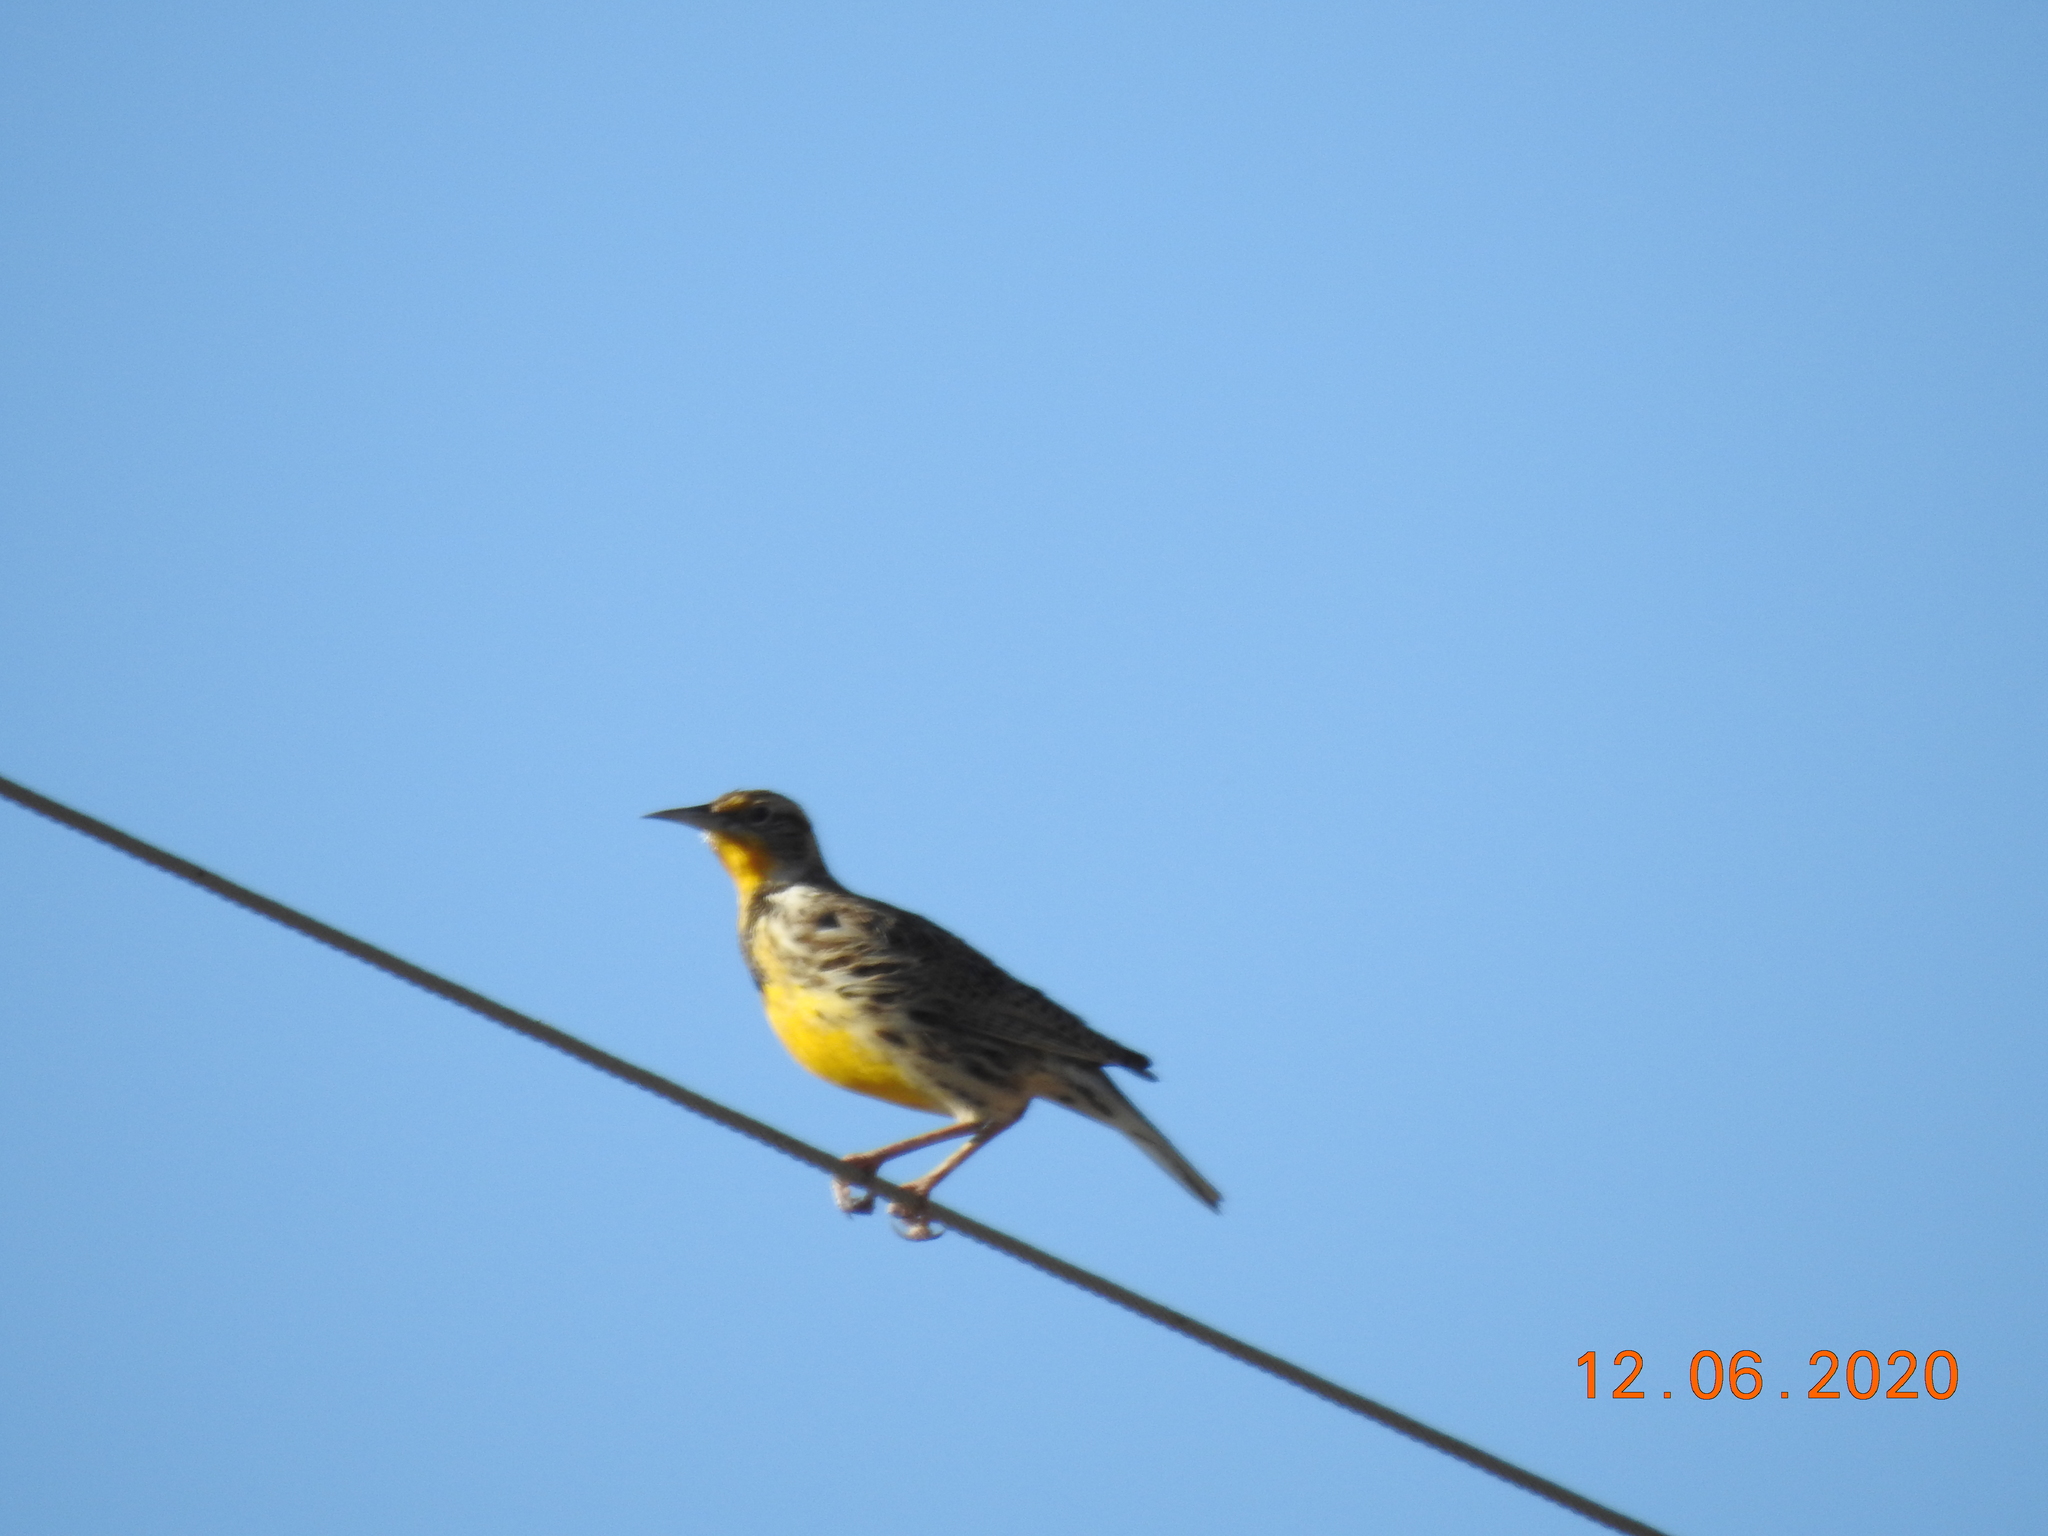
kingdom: Animalia
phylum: Chordata
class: Aves
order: Passeriformes
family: Icteridae
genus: Sturnella
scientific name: Sturnella neglecta
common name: Western meadowlark
